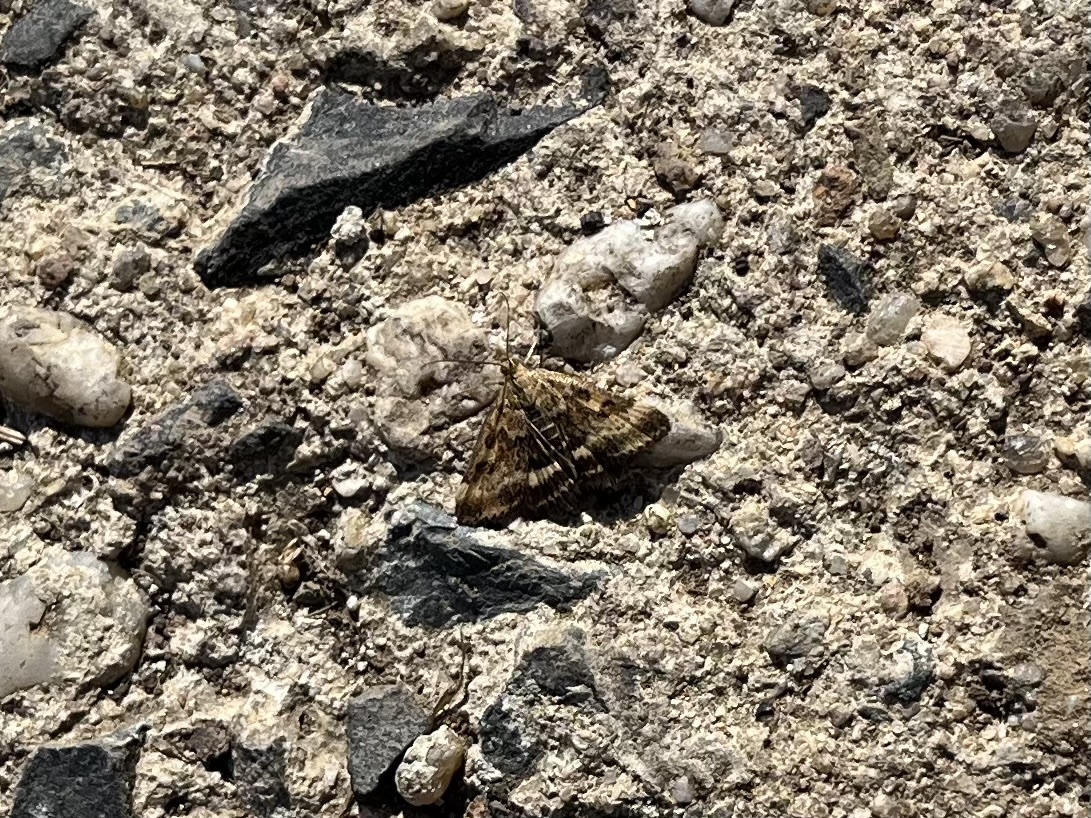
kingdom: Animalia
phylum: Arthropoda
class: Insecta
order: Lepidoptera
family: Crambidae
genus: Pyrausta
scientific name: Pyrausta despicata
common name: Straw-barred pearl
